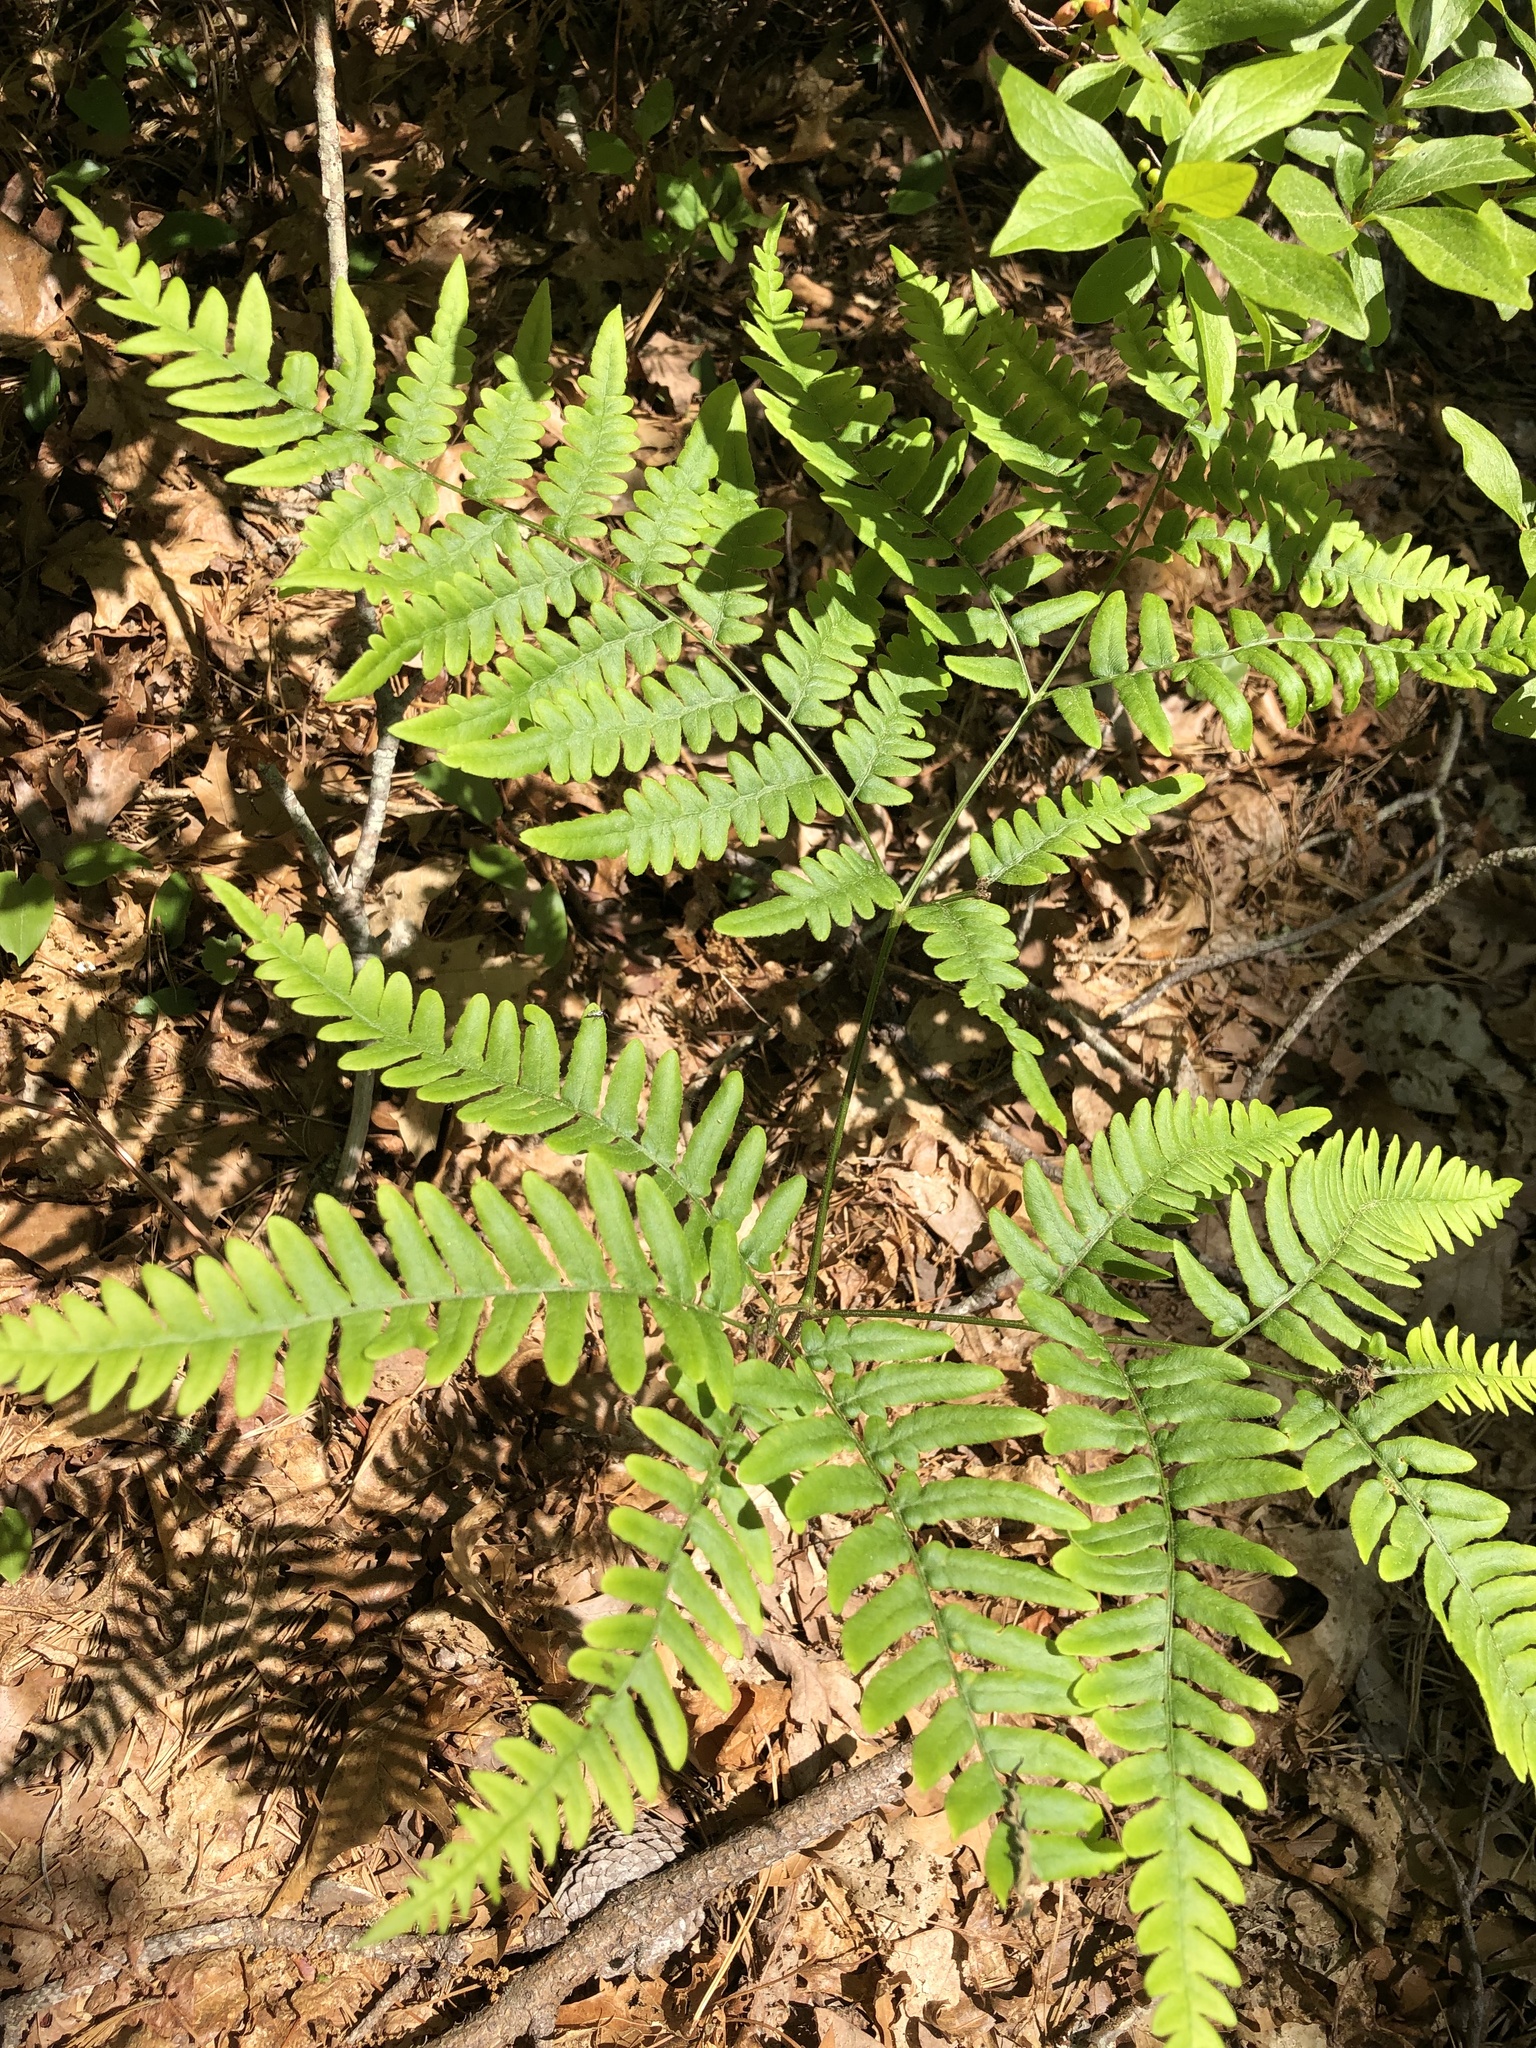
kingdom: Plantae
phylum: Tracheophyta
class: Polypodiopsida
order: Polypodiales
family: Dennstaedtiaceae
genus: Pteridium
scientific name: Pteridium aquilinum
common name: Bracken
